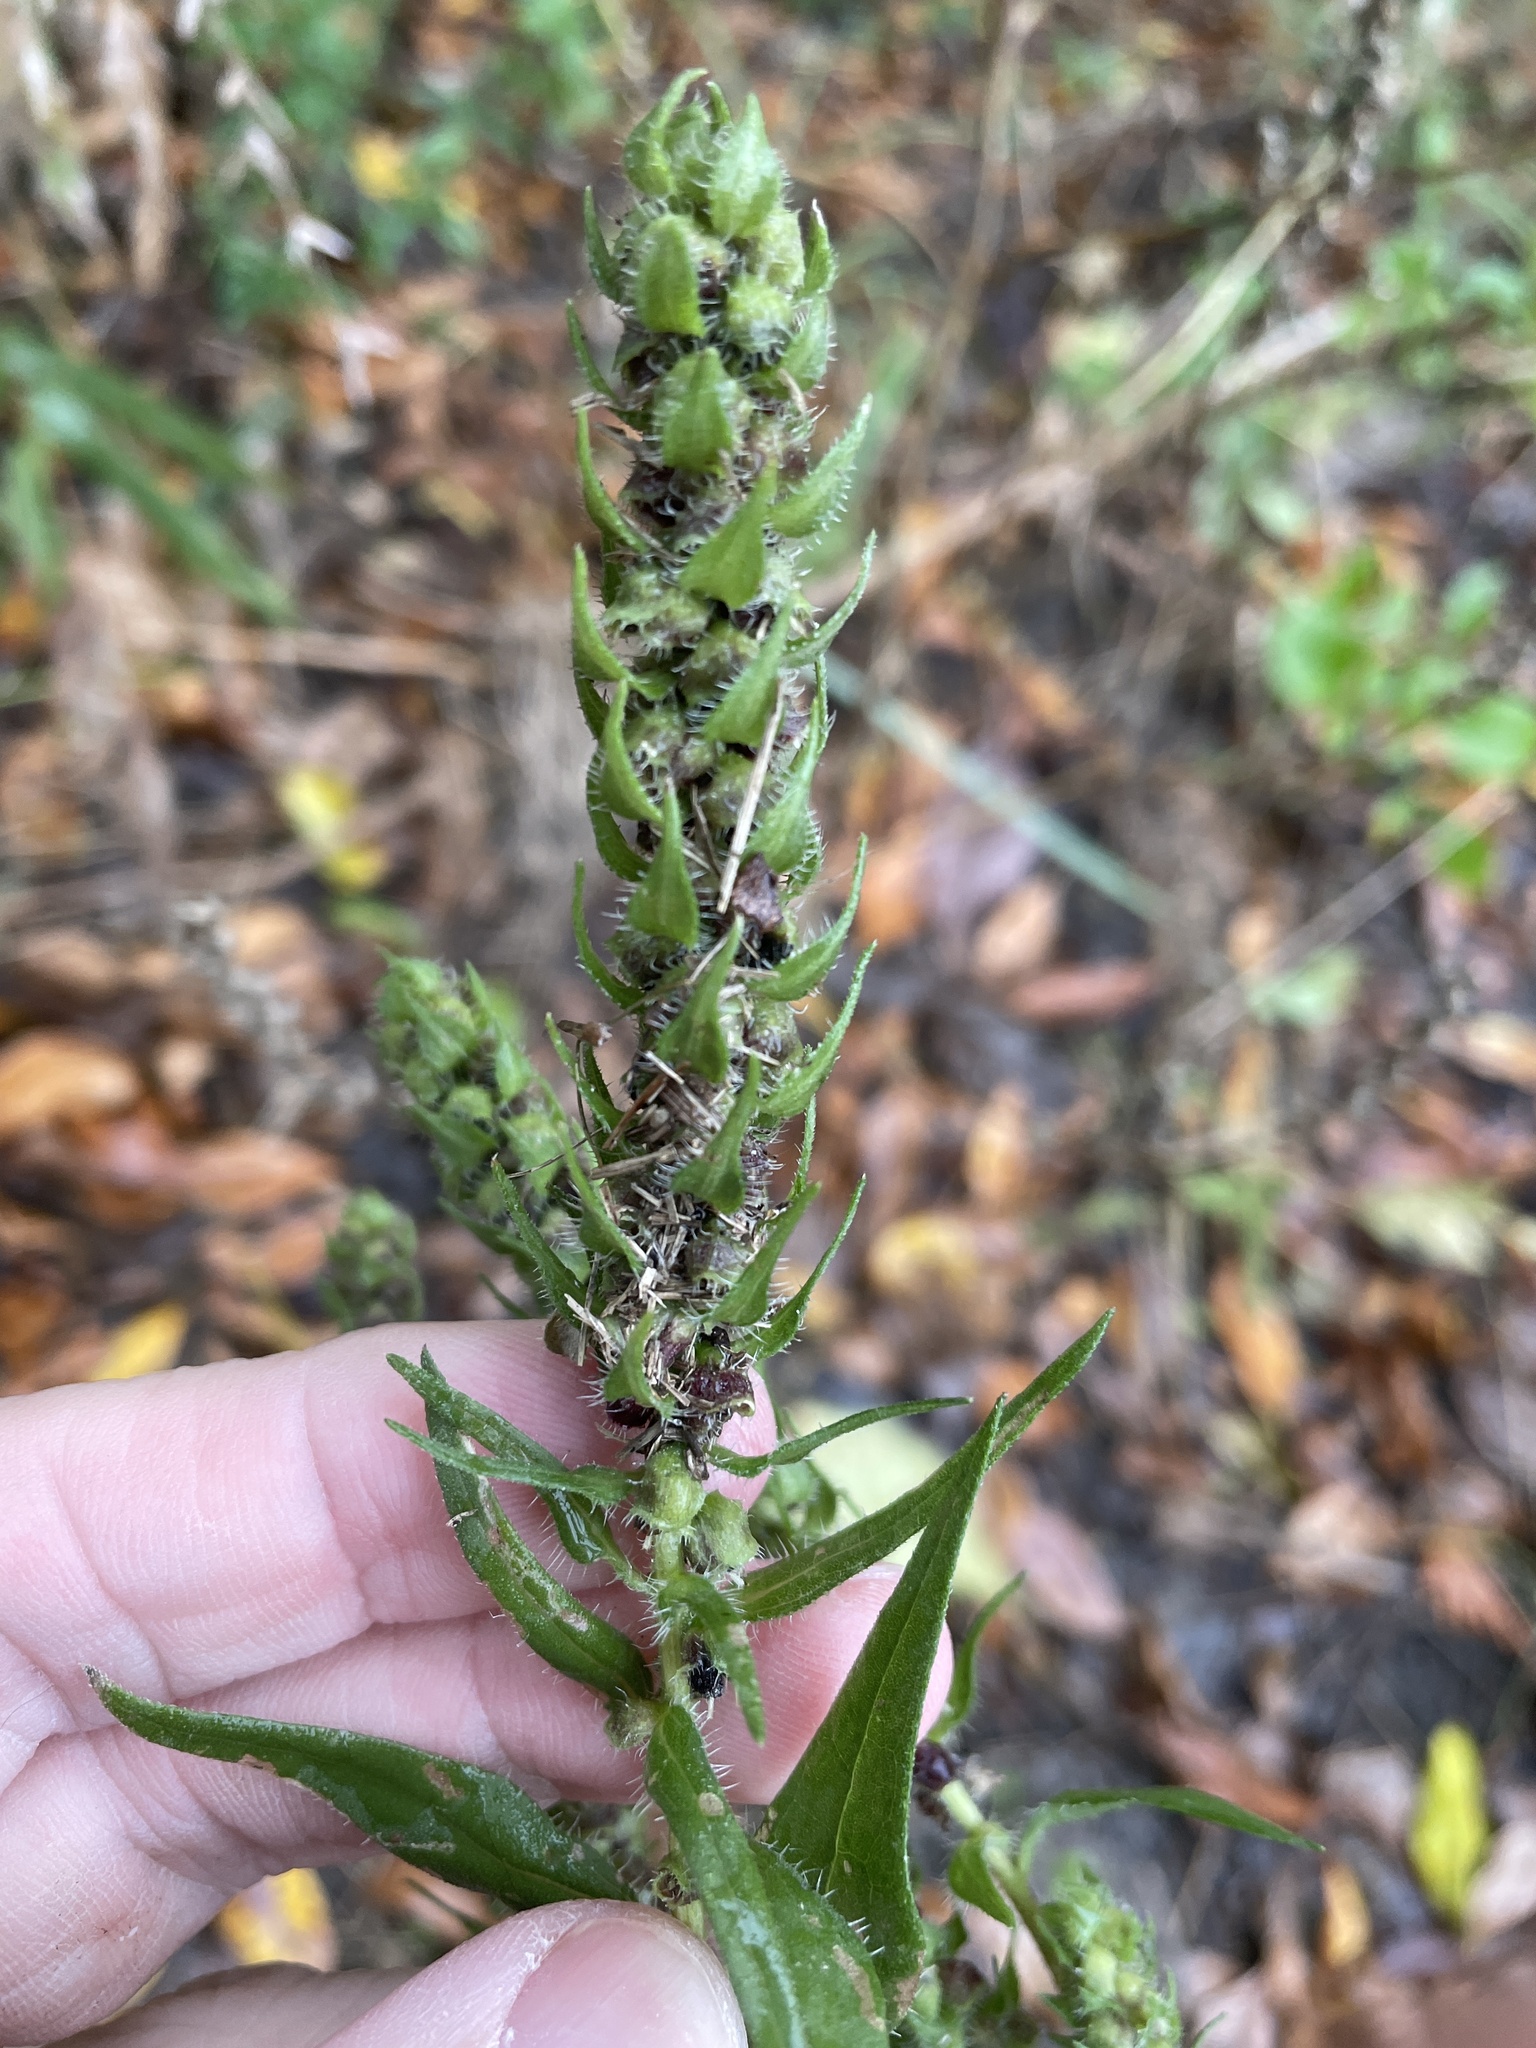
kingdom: Plantae
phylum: Tracheophyta
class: Magnoliopsida
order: Asterales
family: Asteraceae
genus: Iva
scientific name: Iva annua
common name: Marsh-elder
